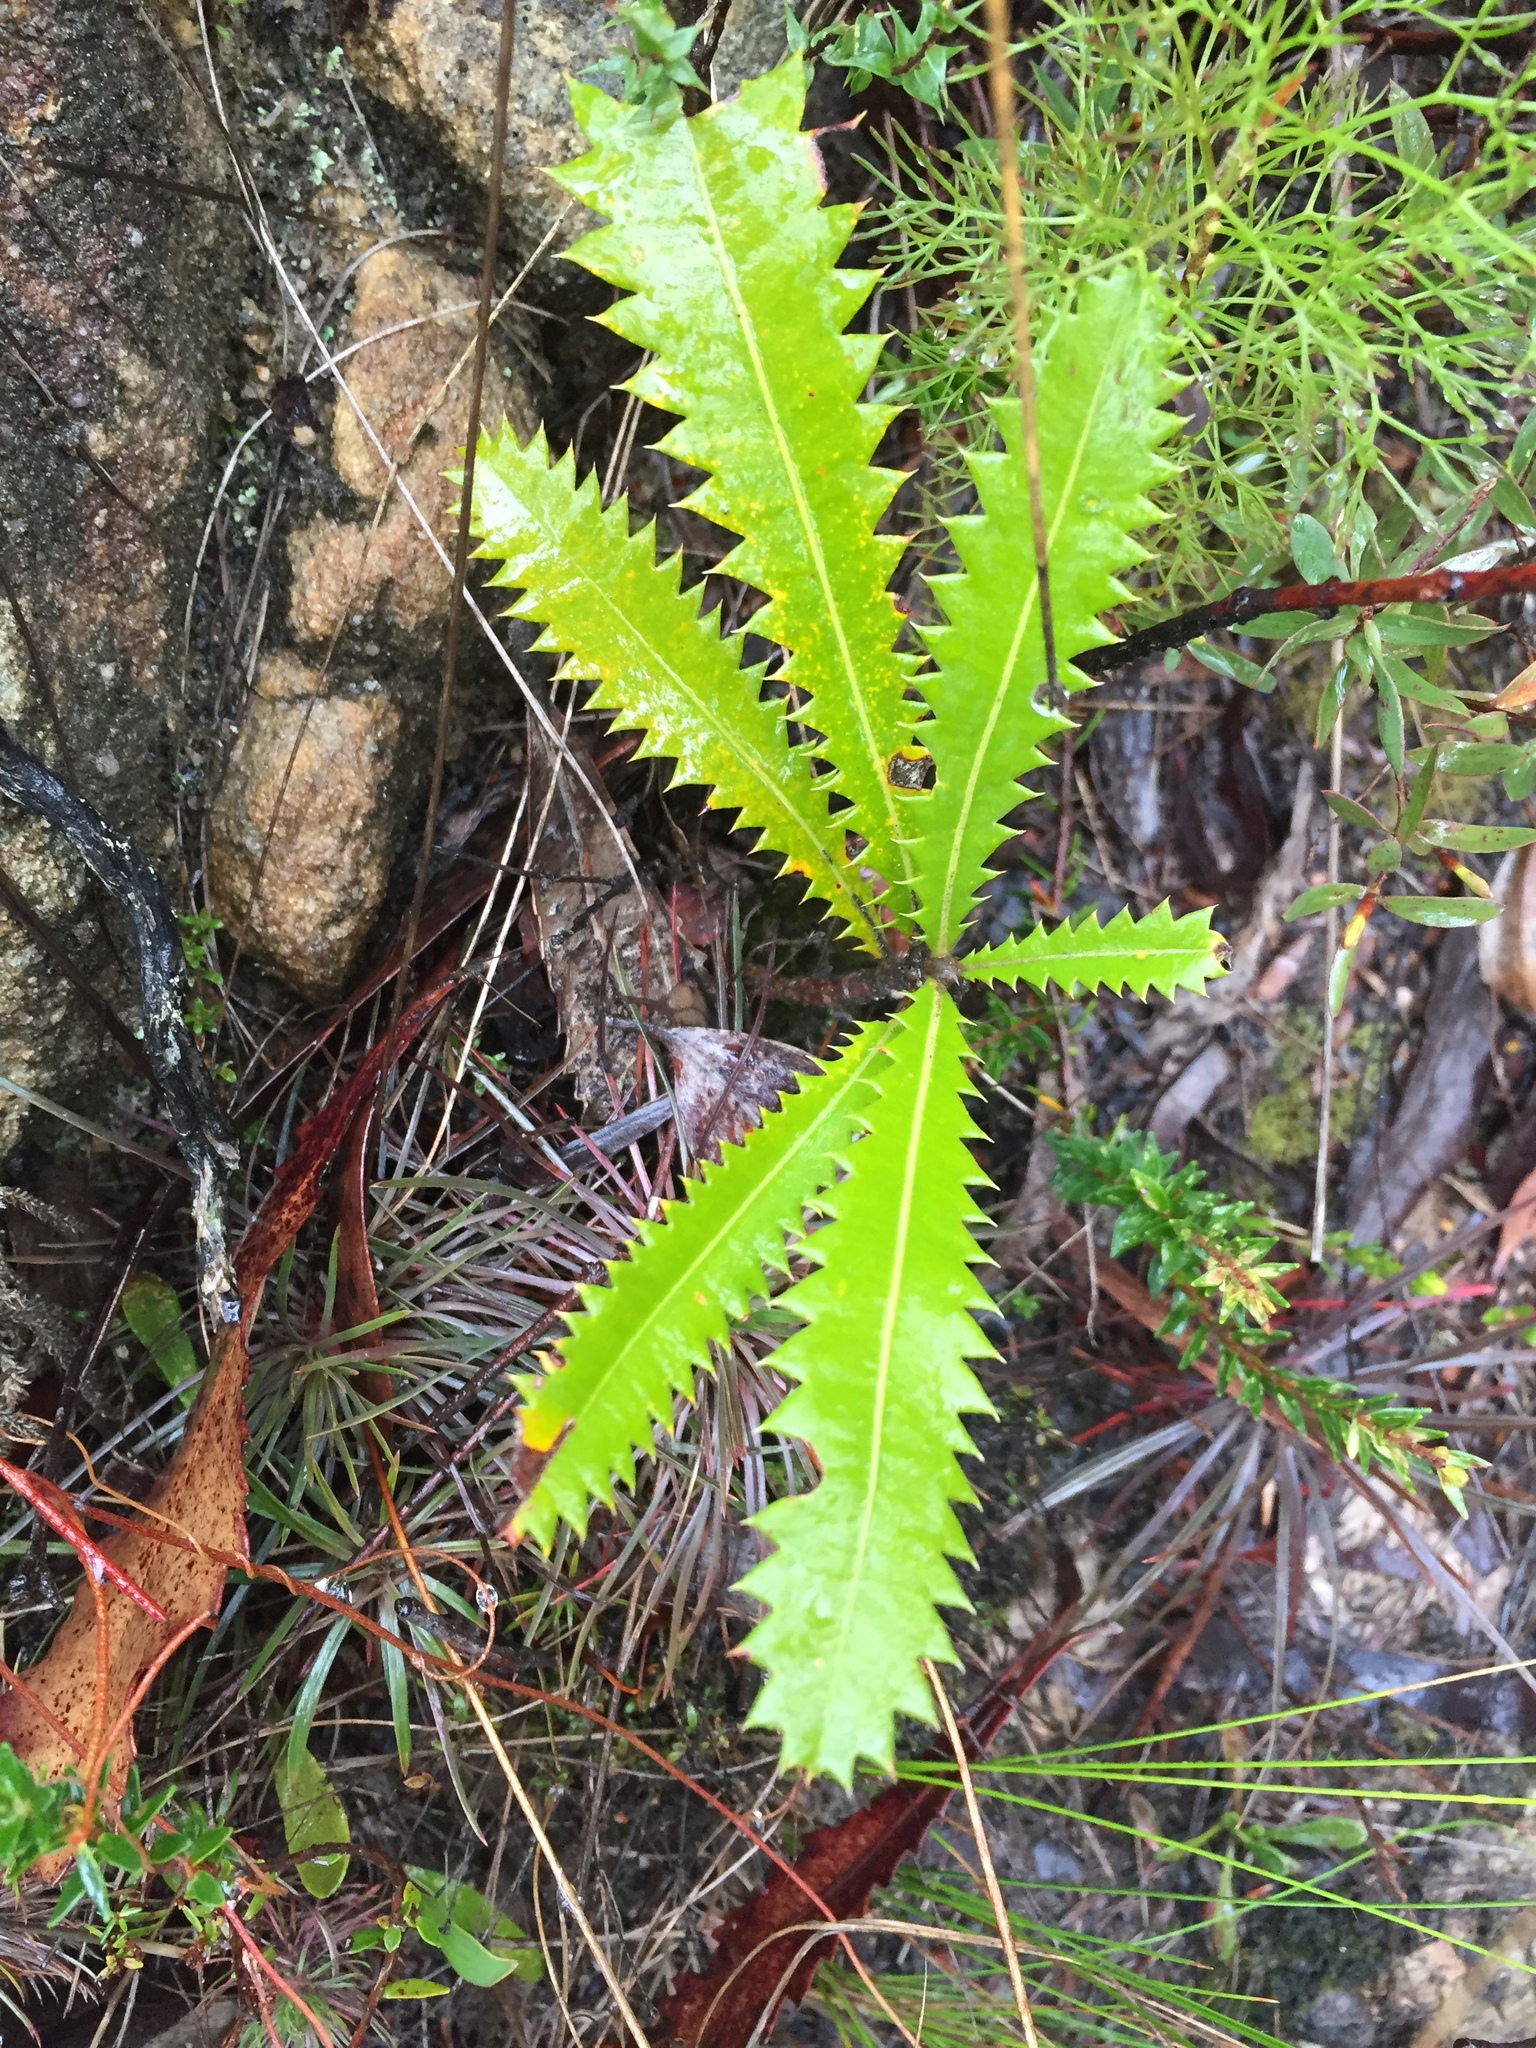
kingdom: Plantae
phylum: Tracheophyta
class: Magnoliopsida
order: Proteales
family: Proteaceae
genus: Banksia
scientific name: Banksia serrata
